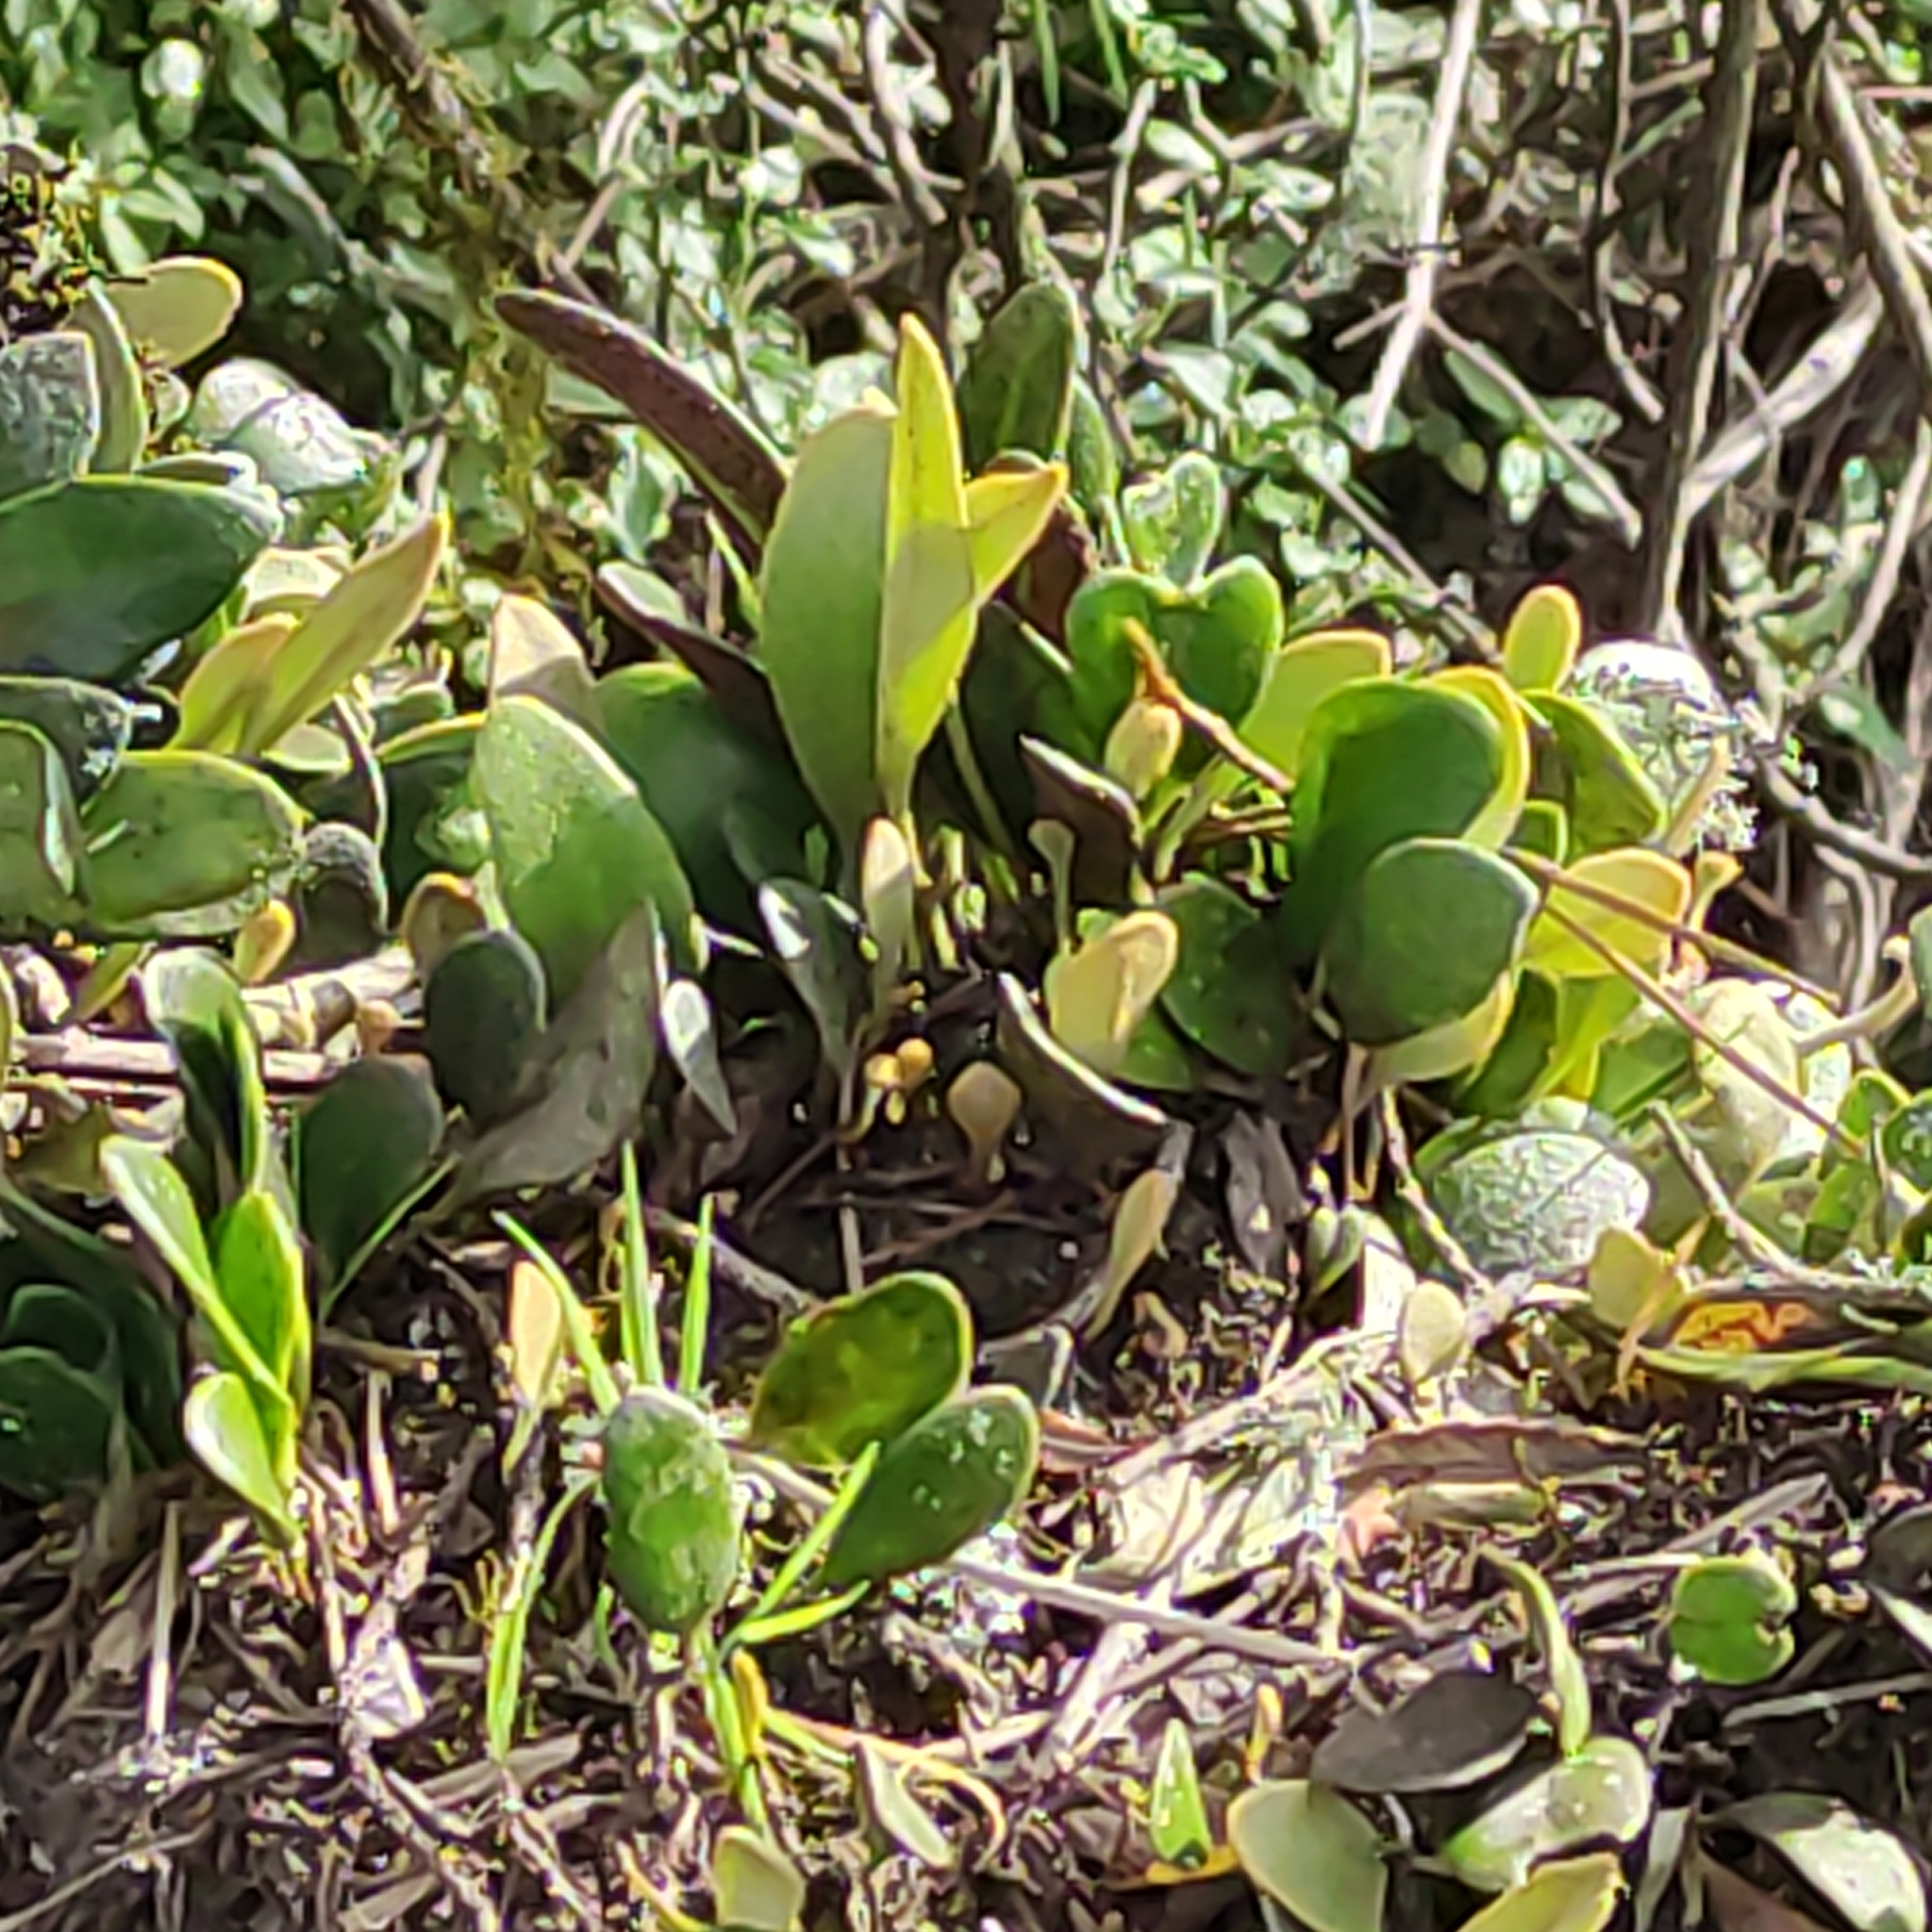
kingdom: Plantae
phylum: Tracheophyta
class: Polypodiopsida
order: Polypodiales
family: Polypodiaceae
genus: Pyrrosia
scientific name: Pyrrosia eleagnifolia
